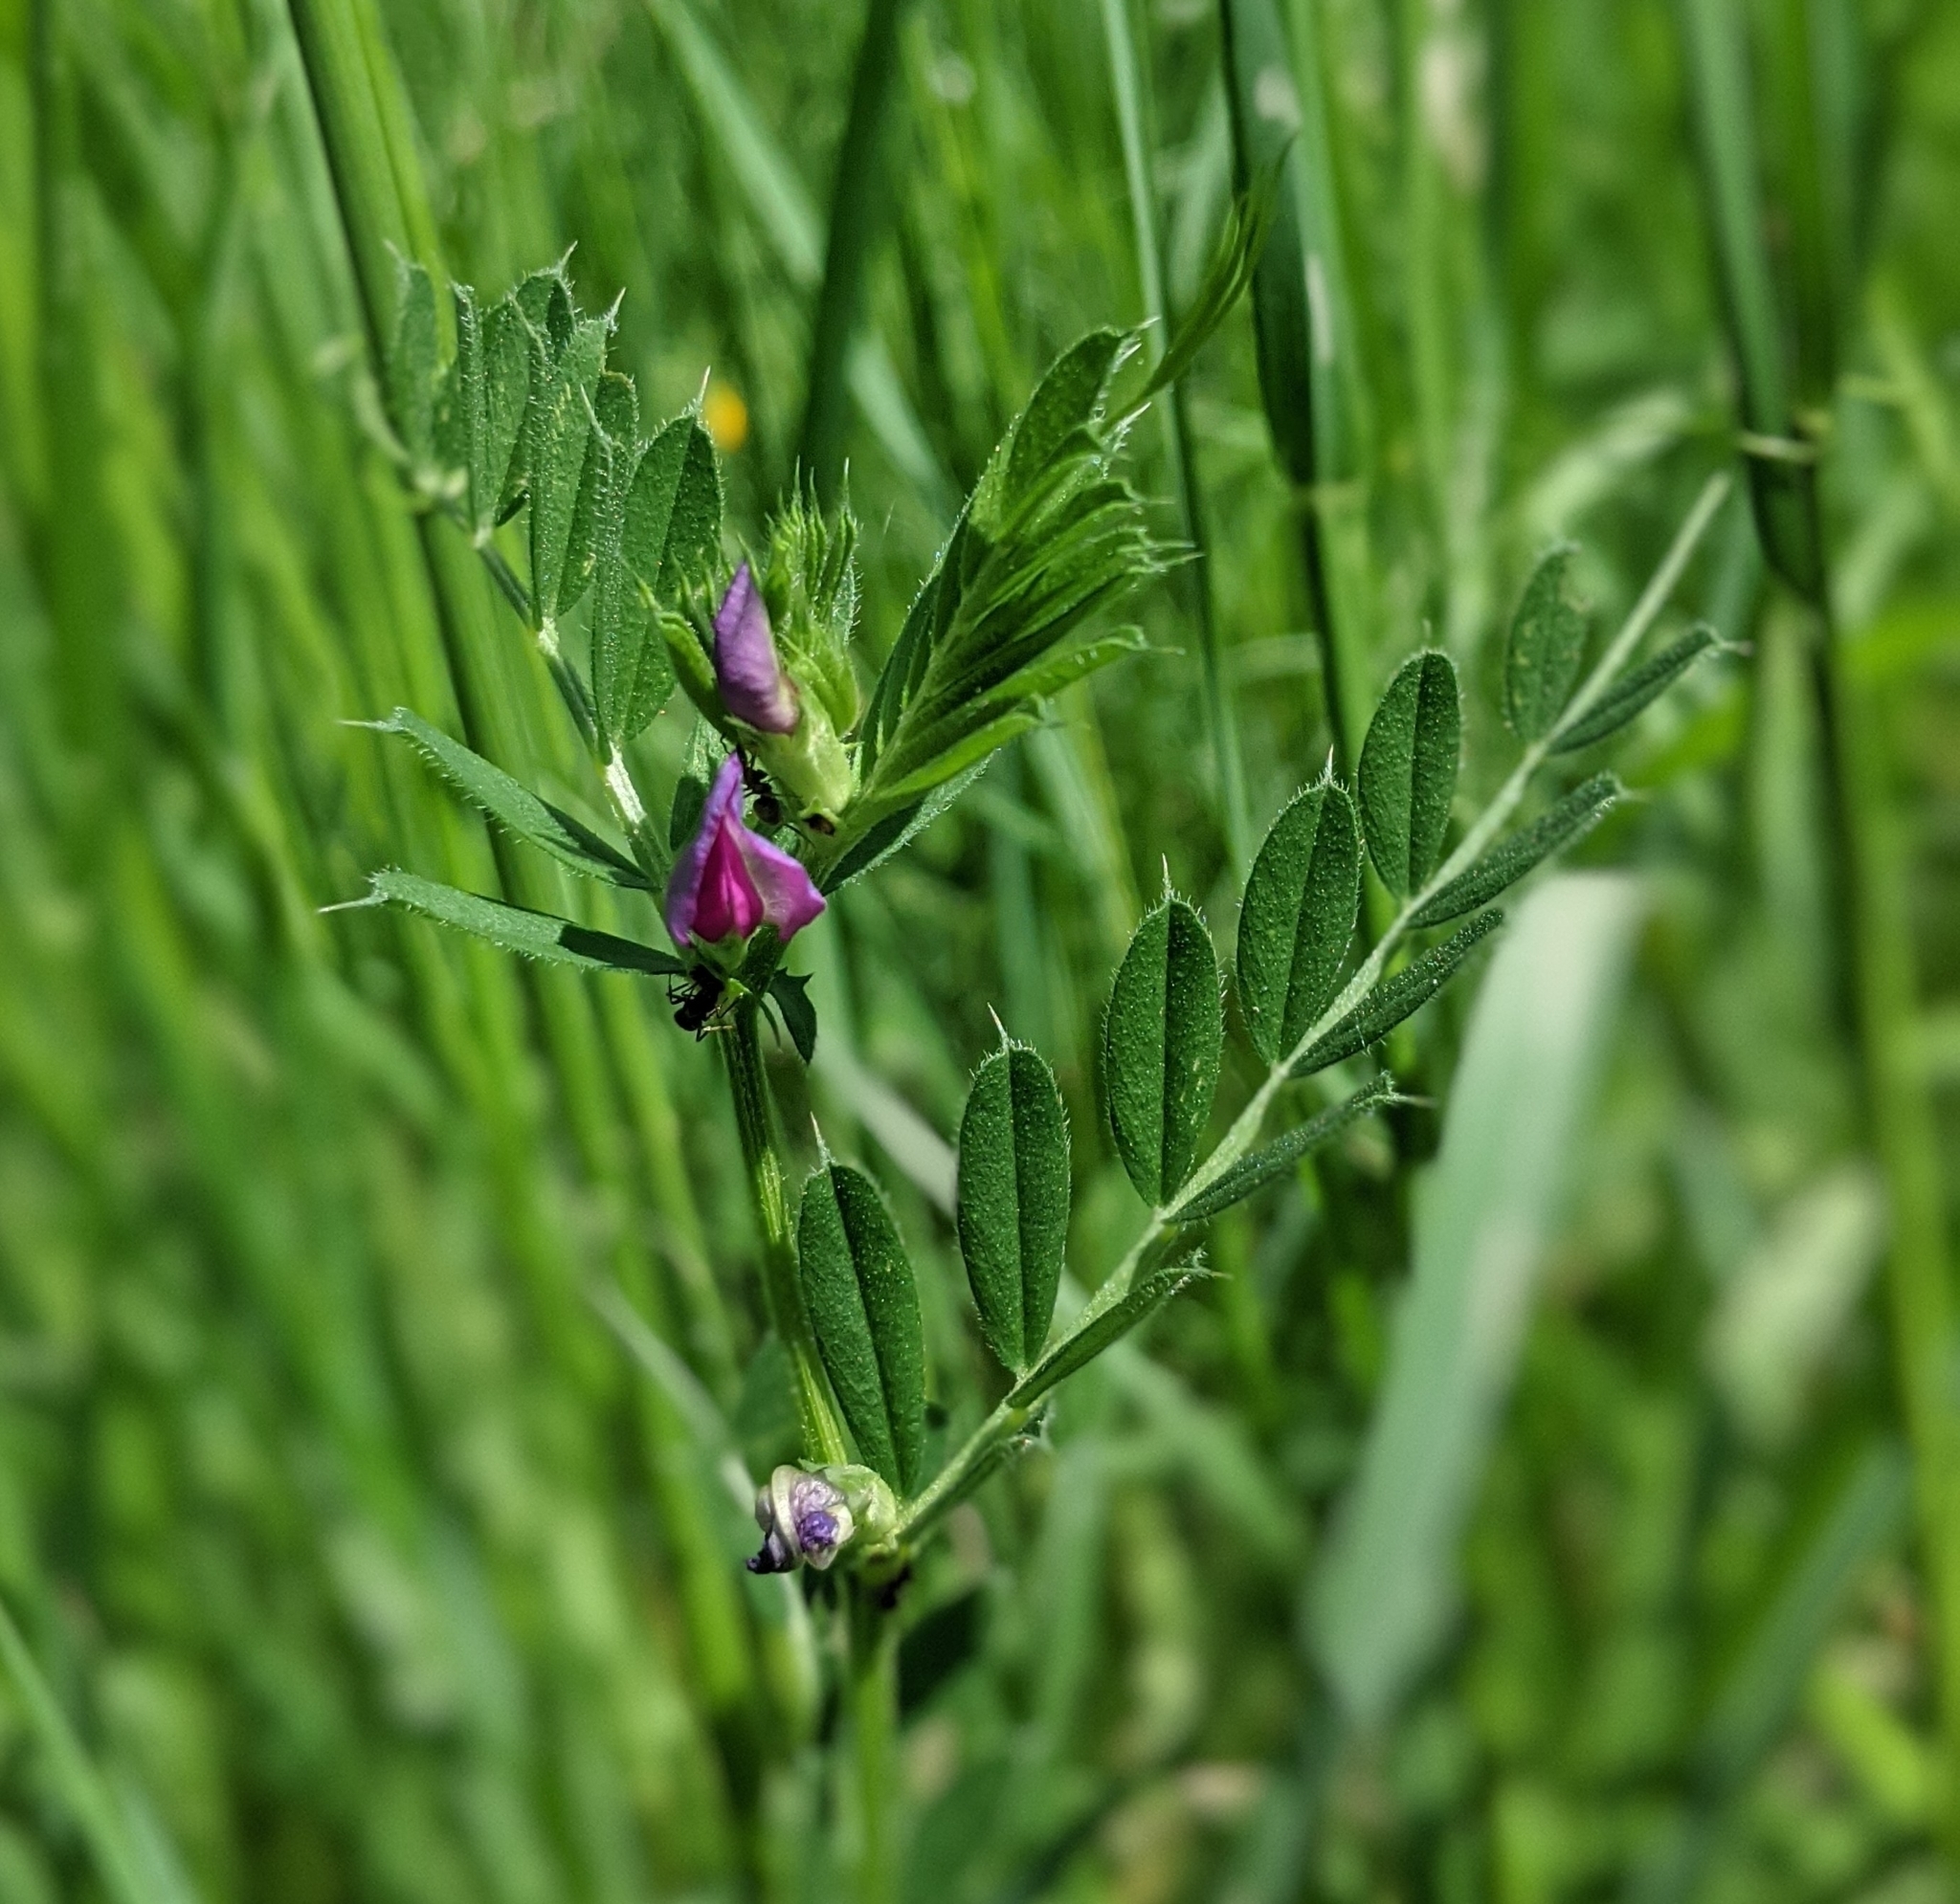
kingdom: Plantae
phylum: Tracheophyta
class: Magnoliopsida
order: Fabales
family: Fabaceae
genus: Vicia
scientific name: Vicia sativa
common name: Garden vetch
